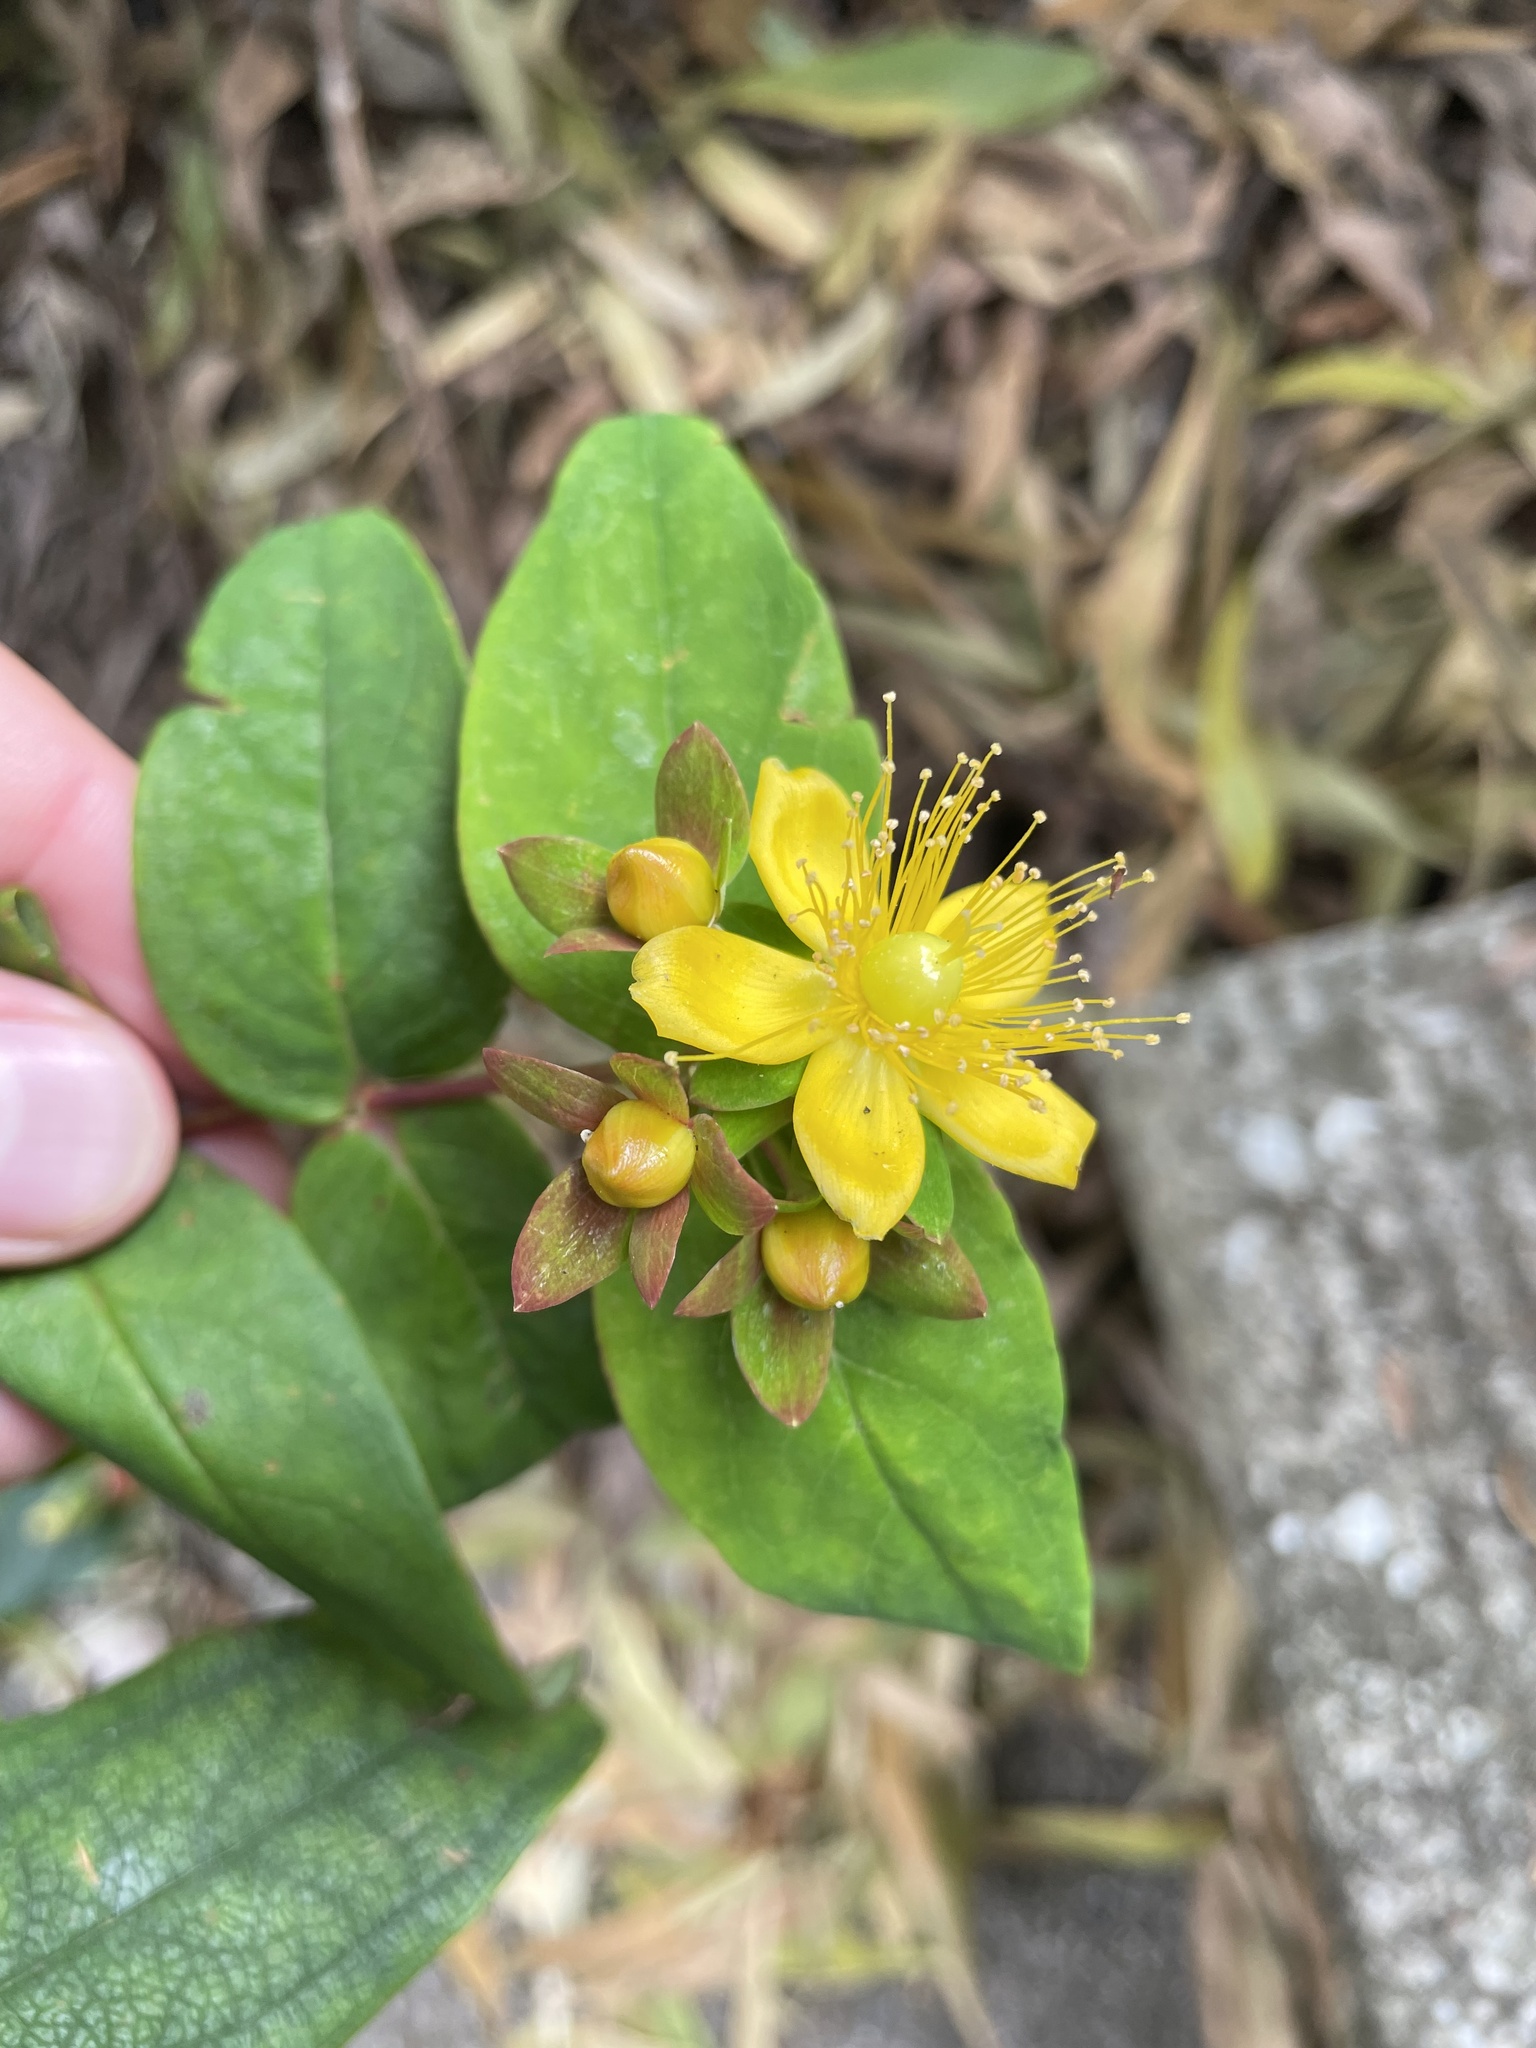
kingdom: Plantae
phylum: Tracheophyta
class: Magnoliopsida
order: Malpighiales
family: Hypericaceae
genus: Hypericum
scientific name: Hypericum androsaemum
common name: Sweet-amber
